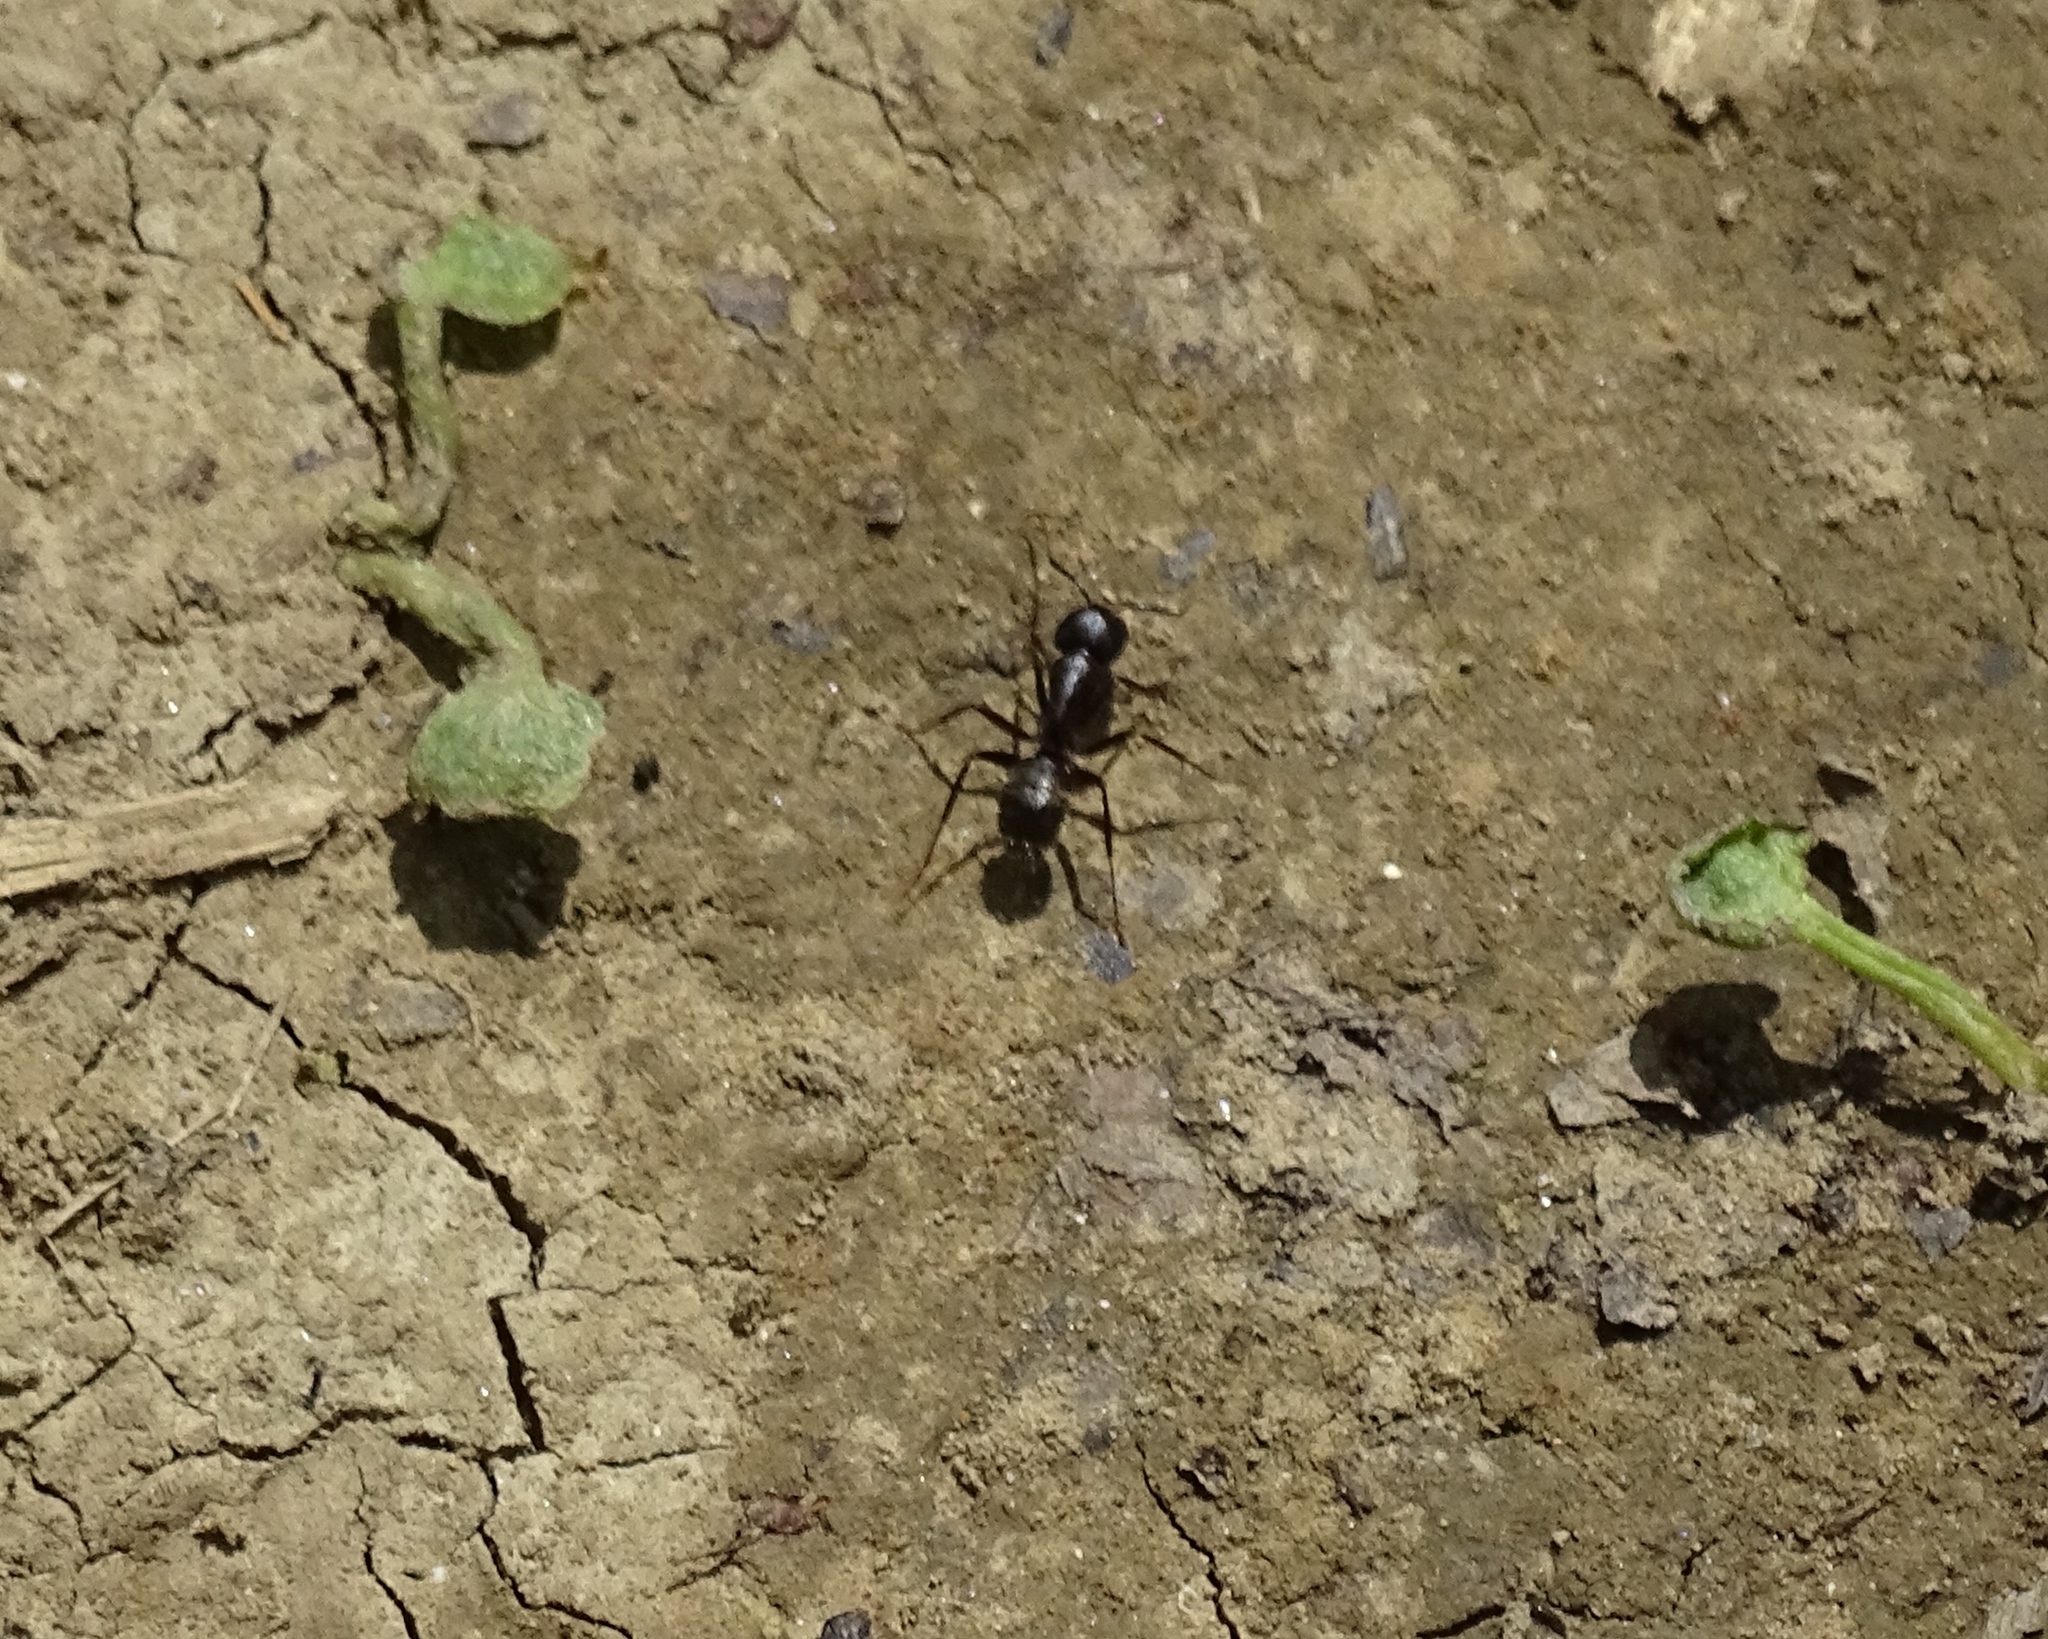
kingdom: Animalia
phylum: Arthropoda
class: Insecta
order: Hymenoptera
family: Formicidae
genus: Camponotus
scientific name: Camponotus pennsylvanicus
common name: Black carpenter ant
